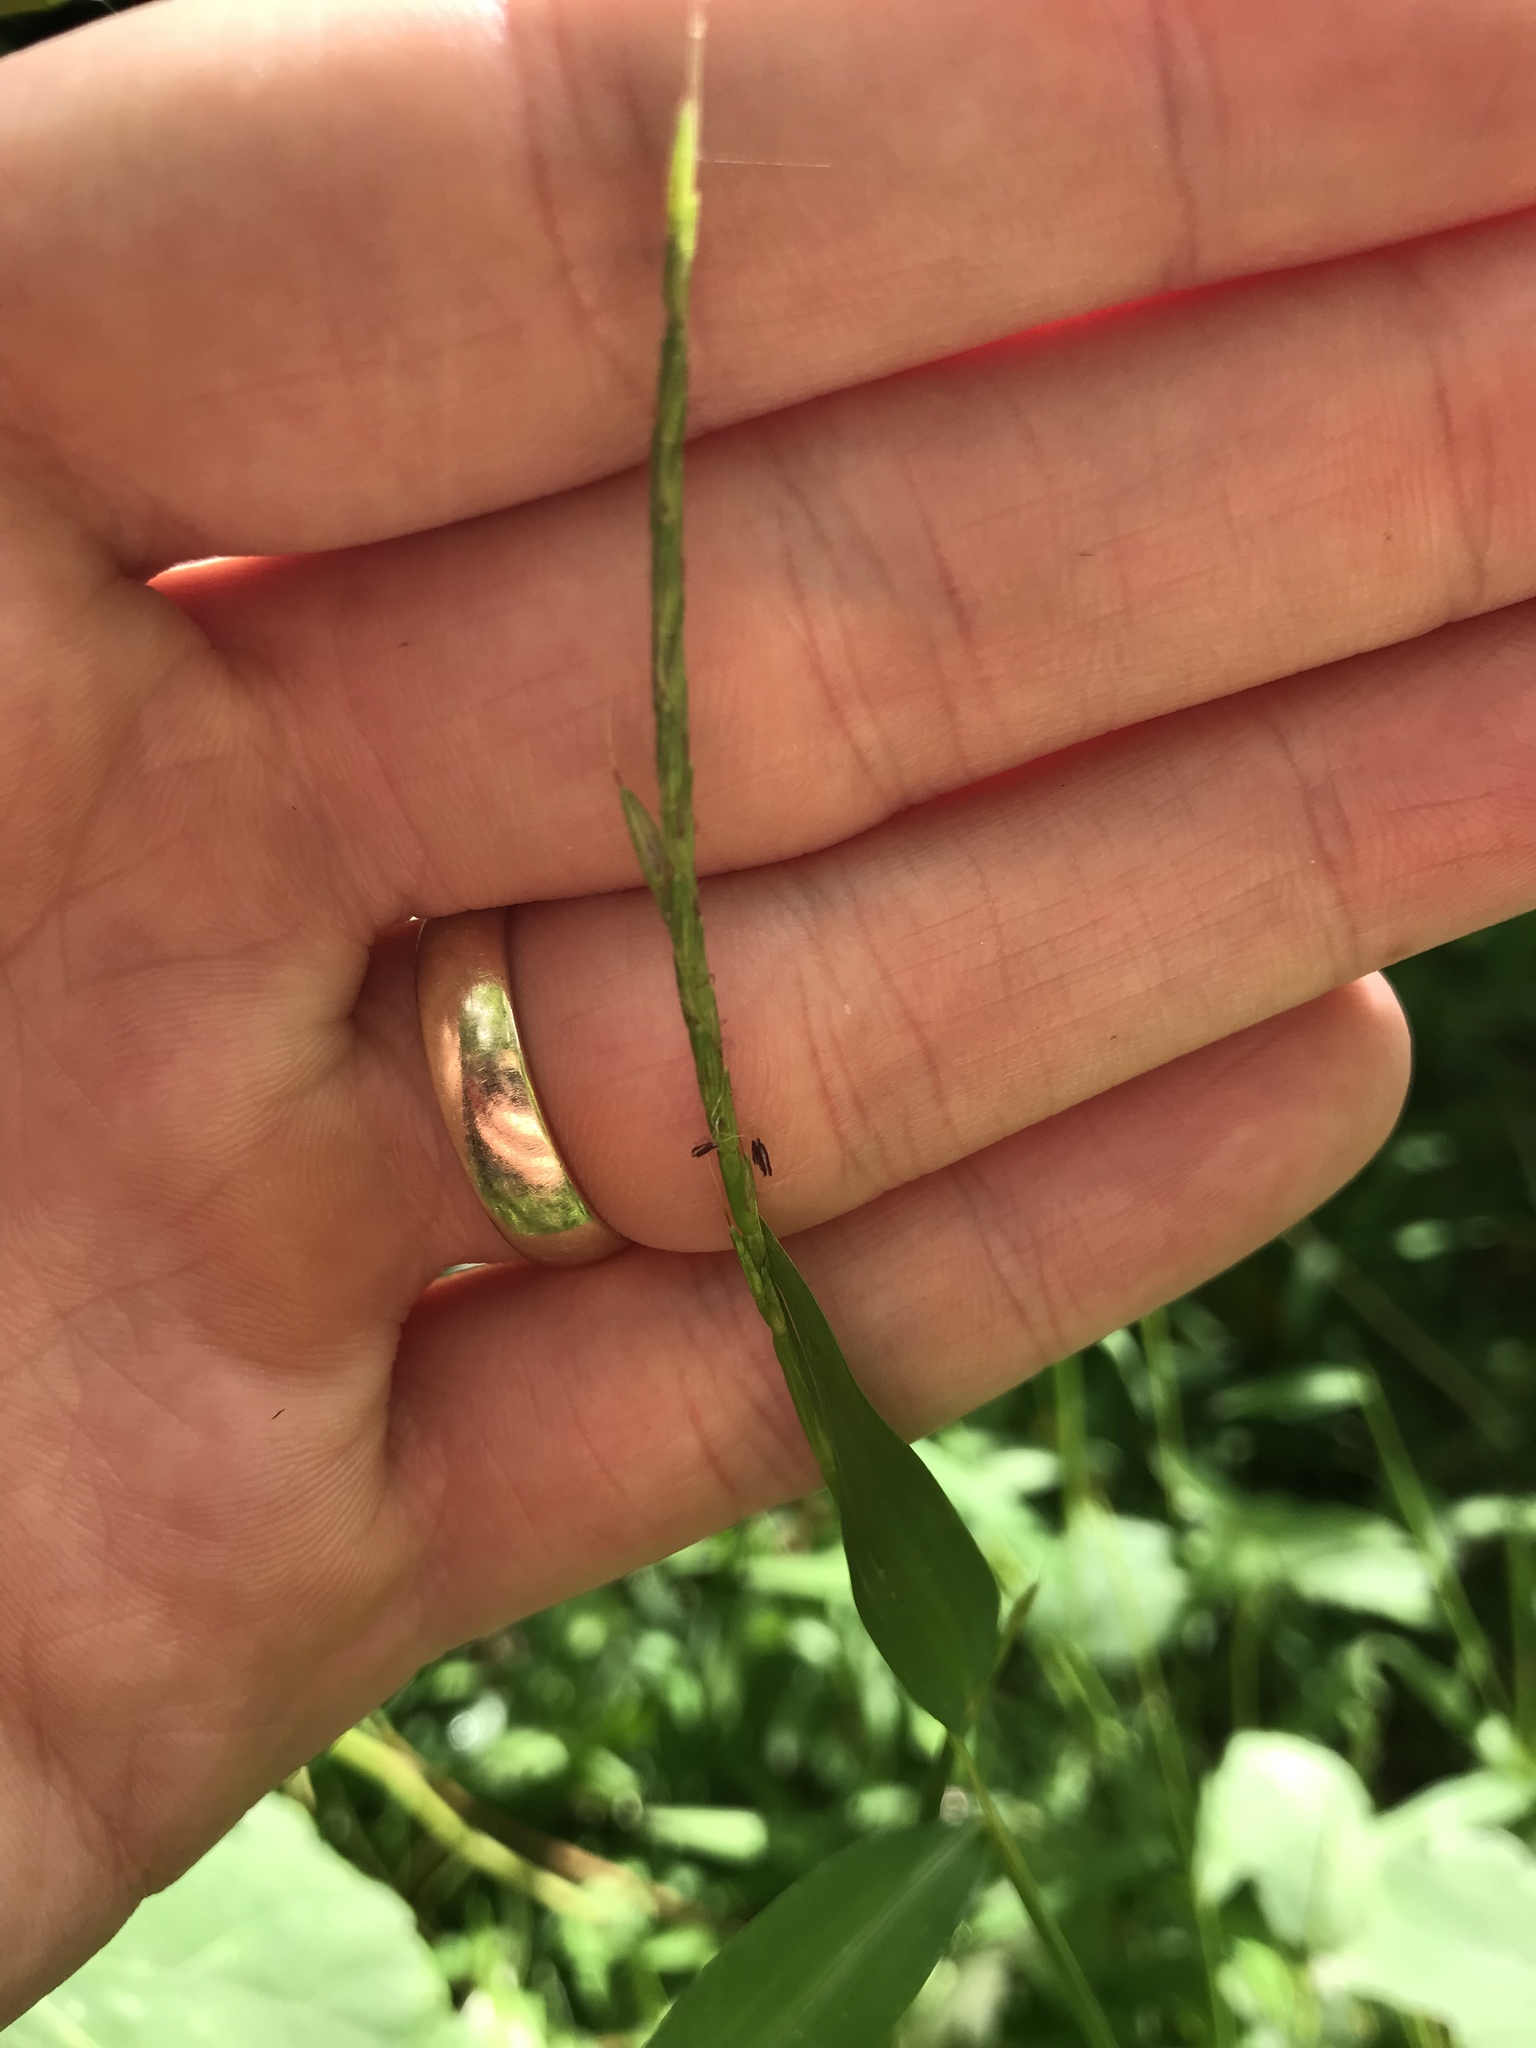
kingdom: Plantae
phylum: Tracheophyta
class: Liliopsida
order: Poales
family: Poaceae
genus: Microstegium
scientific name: Microstegium vimineum
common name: Japanese stiltgrass
